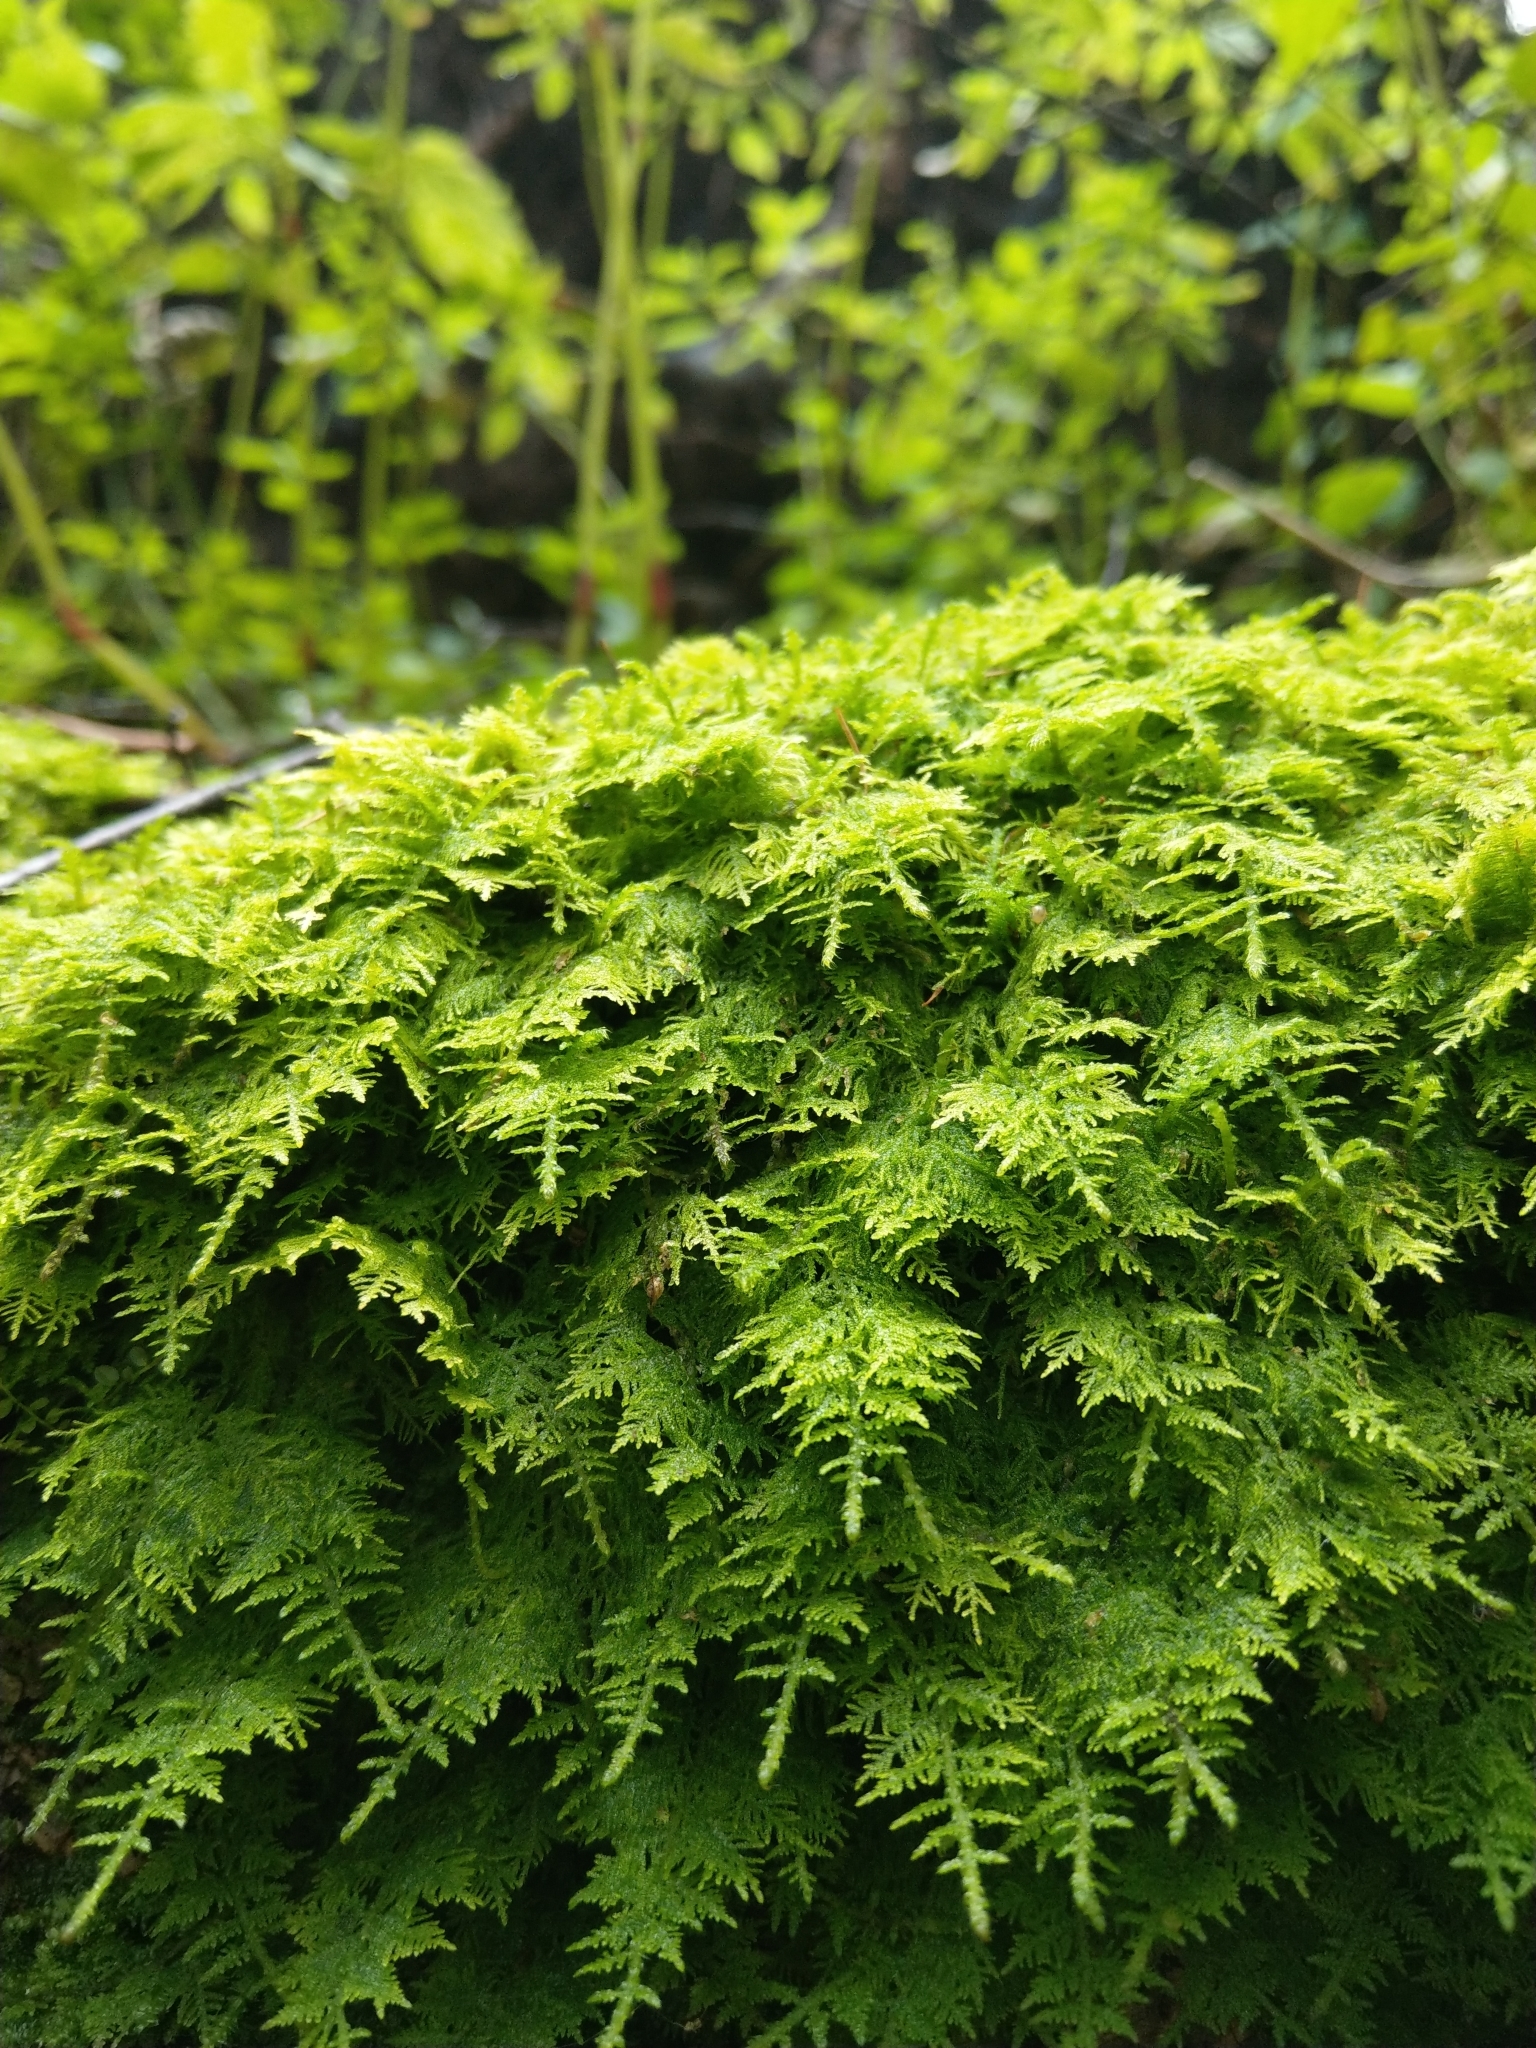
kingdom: Plantae
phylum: Bryophyta
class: Bryopsida
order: Hypnales
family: Hylocomiaceae
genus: Hylocomium
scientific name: Hylocomium splendens
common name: Stairstep moss
